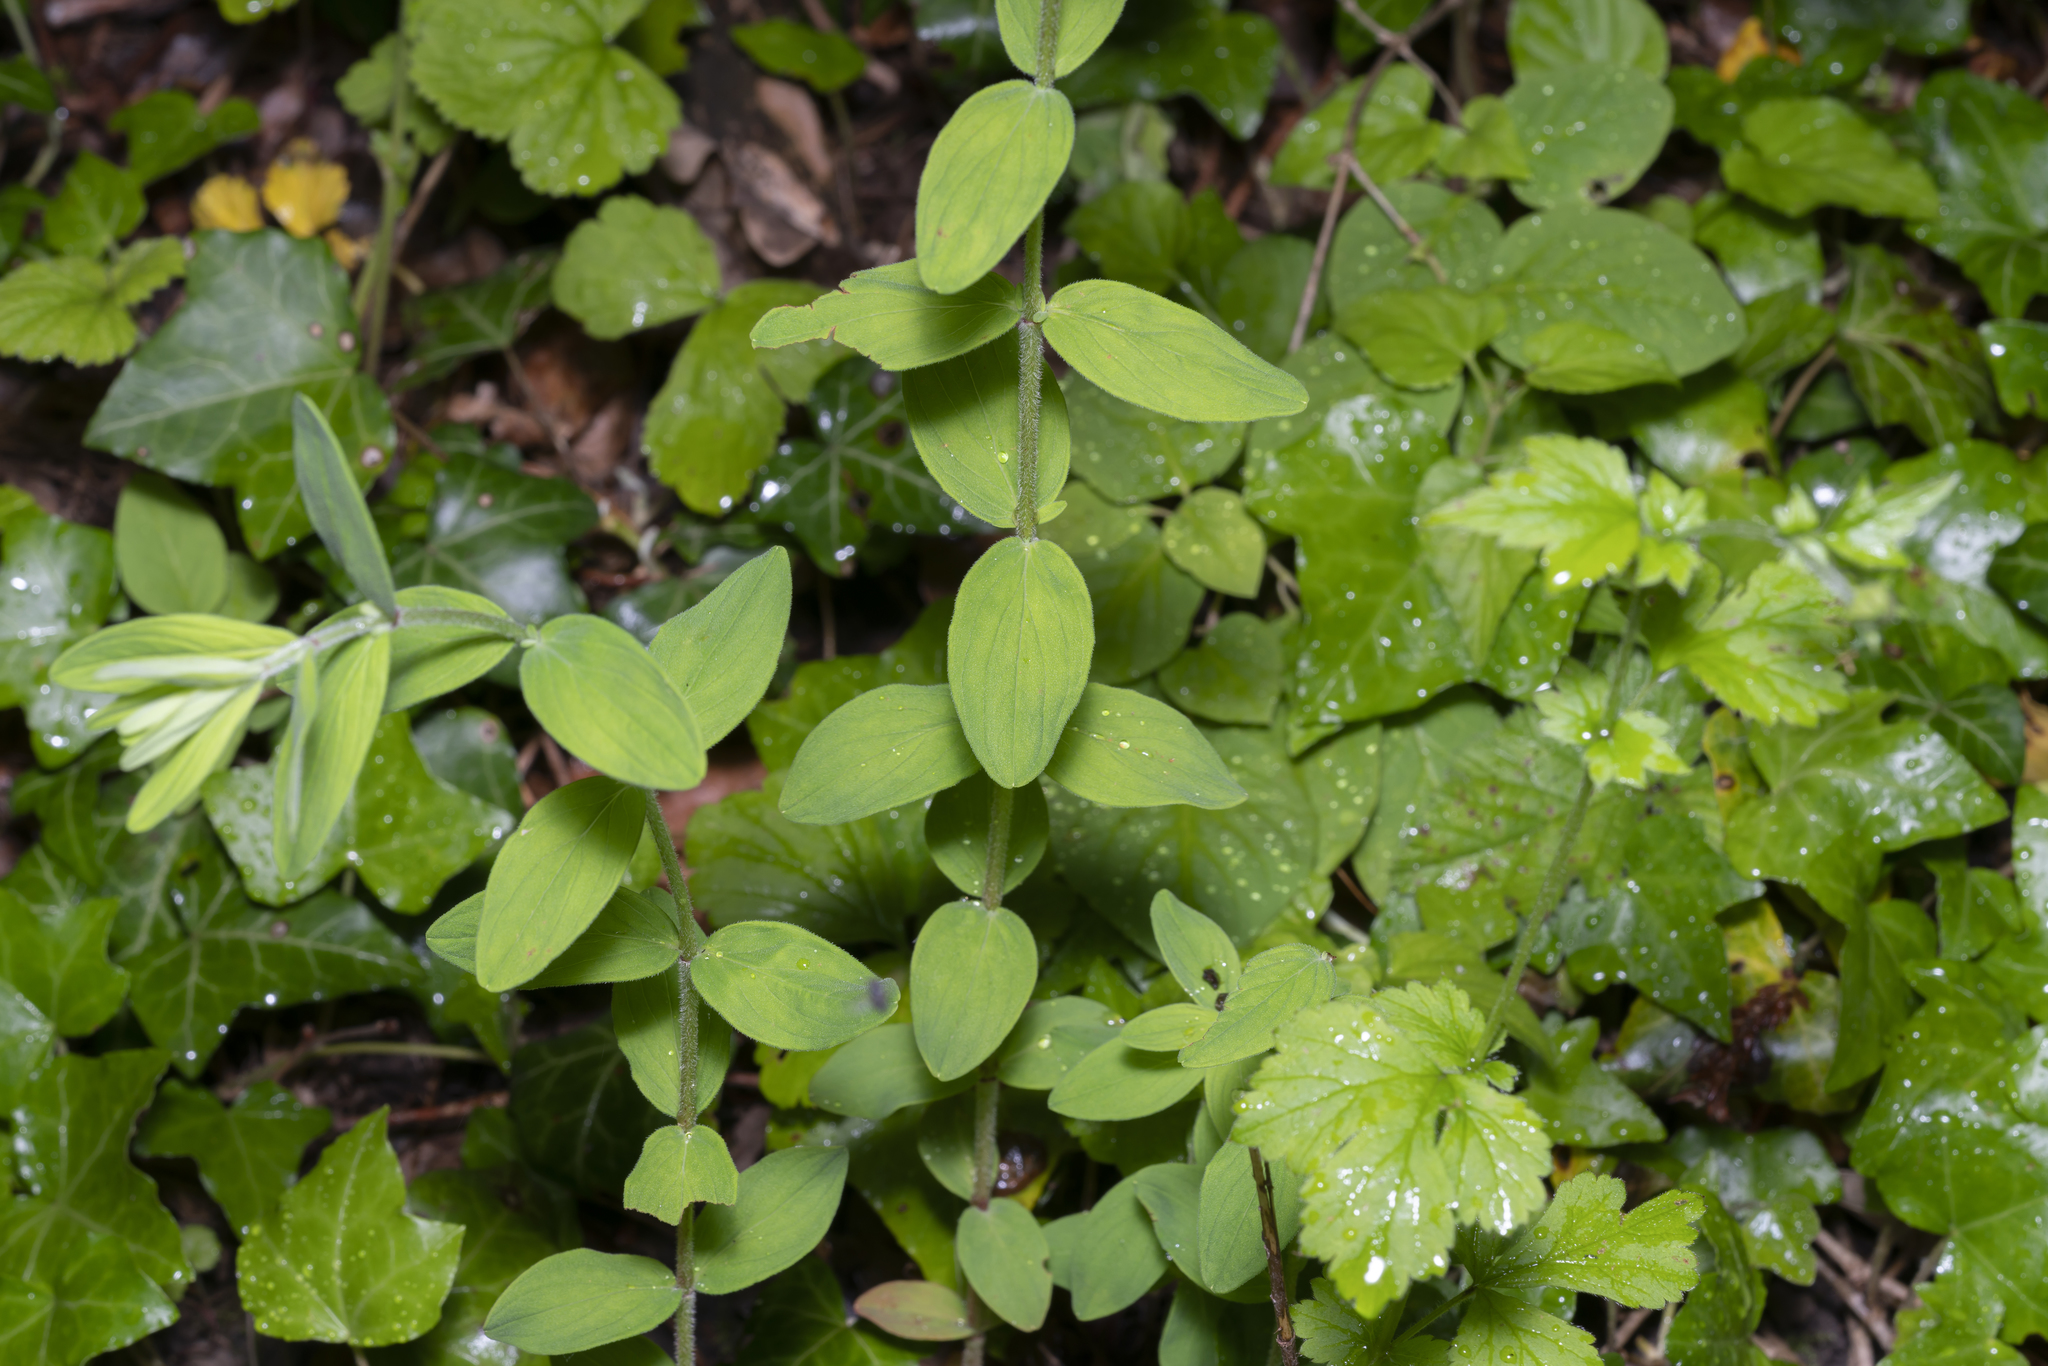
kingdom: Plantae
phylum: Tracheophyta
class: Magnoliopsida
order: Malpighiales
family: Hypericaceae
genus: Hypericum
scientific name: Hypericum hirsutum
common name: Hairy st. john's-wort
